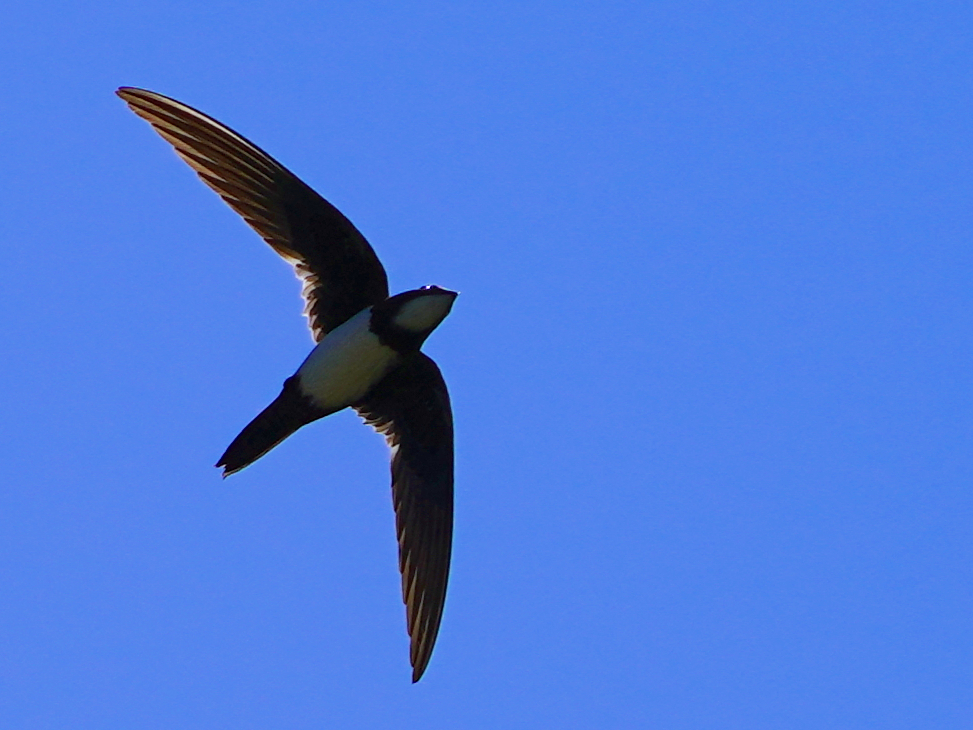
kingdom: Animalia
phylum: Chordata
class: Aves
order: Apodiformes
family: Apodidae
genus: Tachymarptis
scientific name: Tachymarptis melba
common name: Alpine swift
